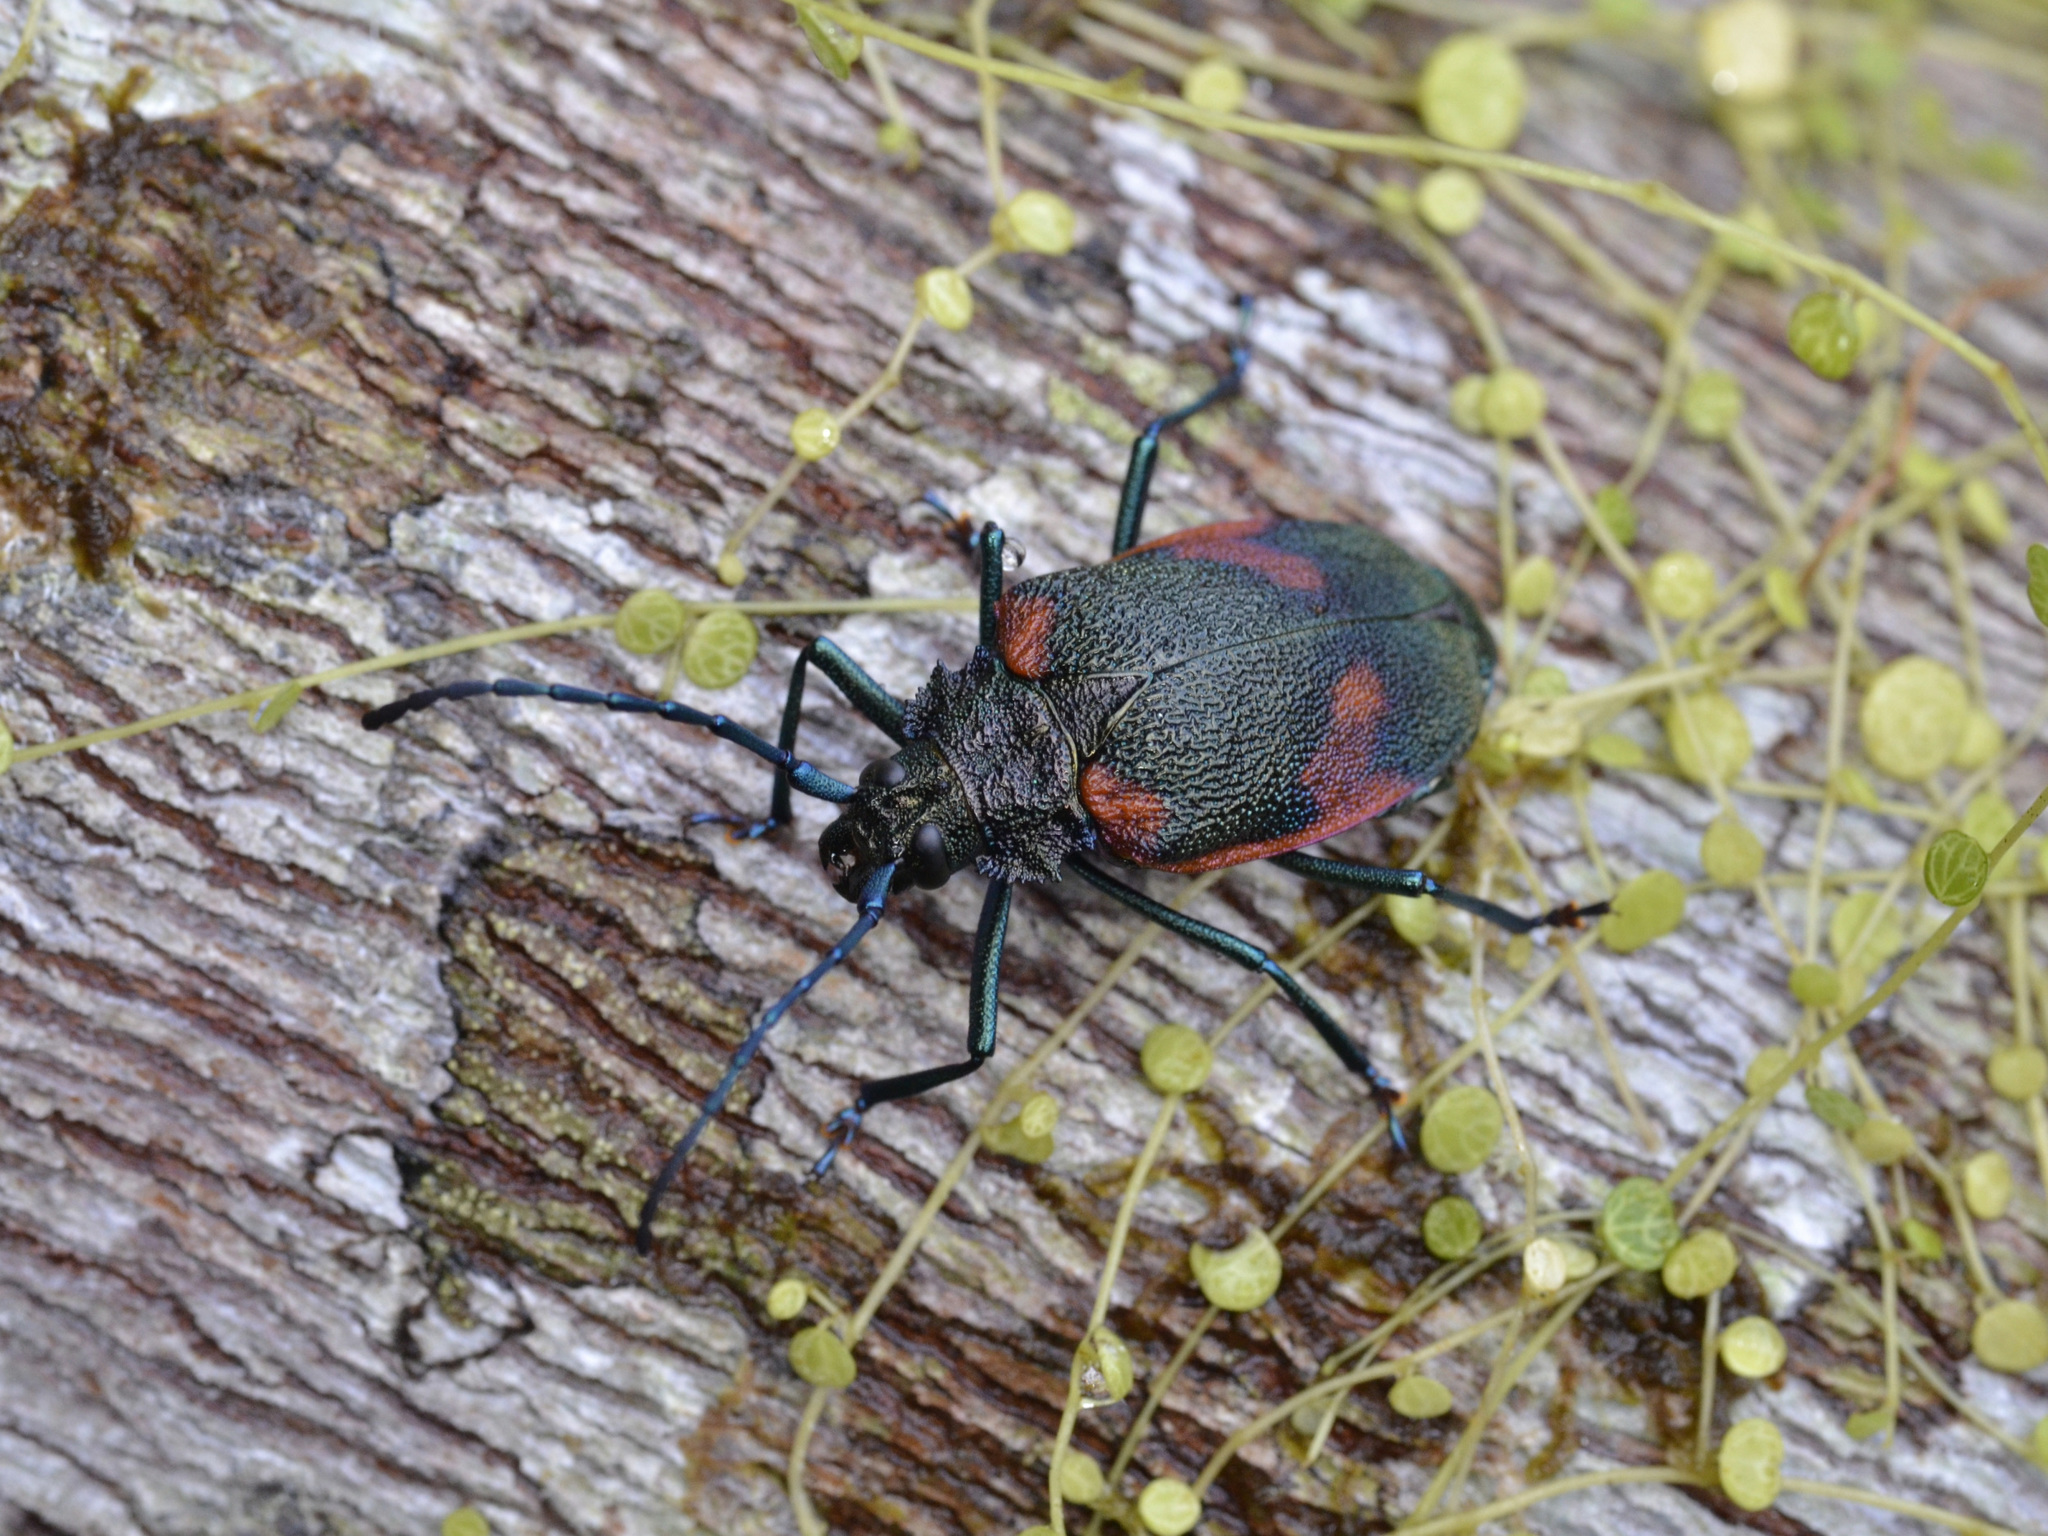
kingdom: Animalia
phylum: Arthropoda
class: Insecta
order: Coleoptera
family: Cerambycidae
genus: Hileolaspis
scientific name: Hileolaspis auratus
